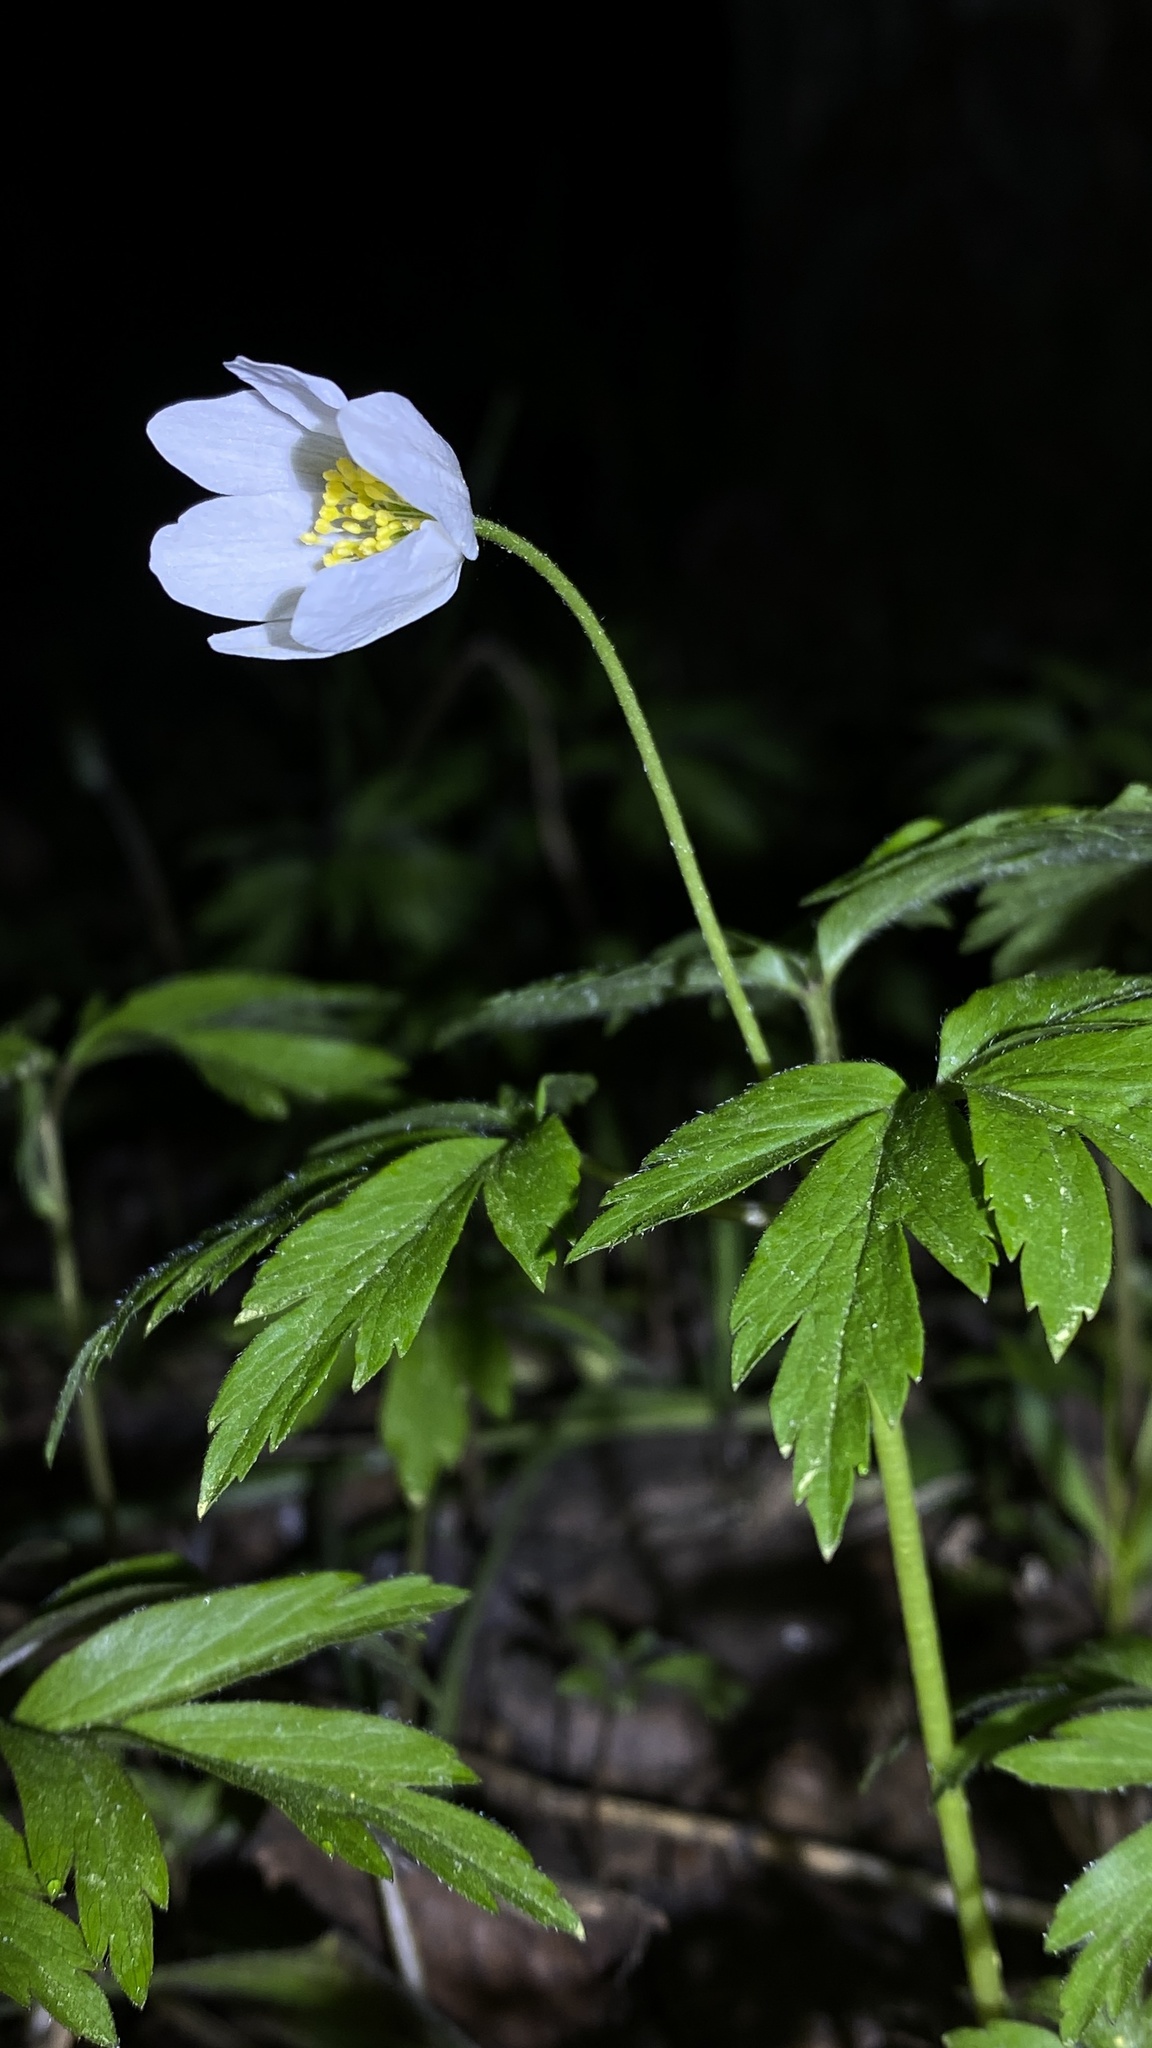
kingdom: Plantae
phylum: Tracheophyta
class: Magnoliopsida
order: Ranunculales
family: Ranunculaceae
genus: Anemone
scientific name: Anemone nemorosa
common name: Wood anemone
